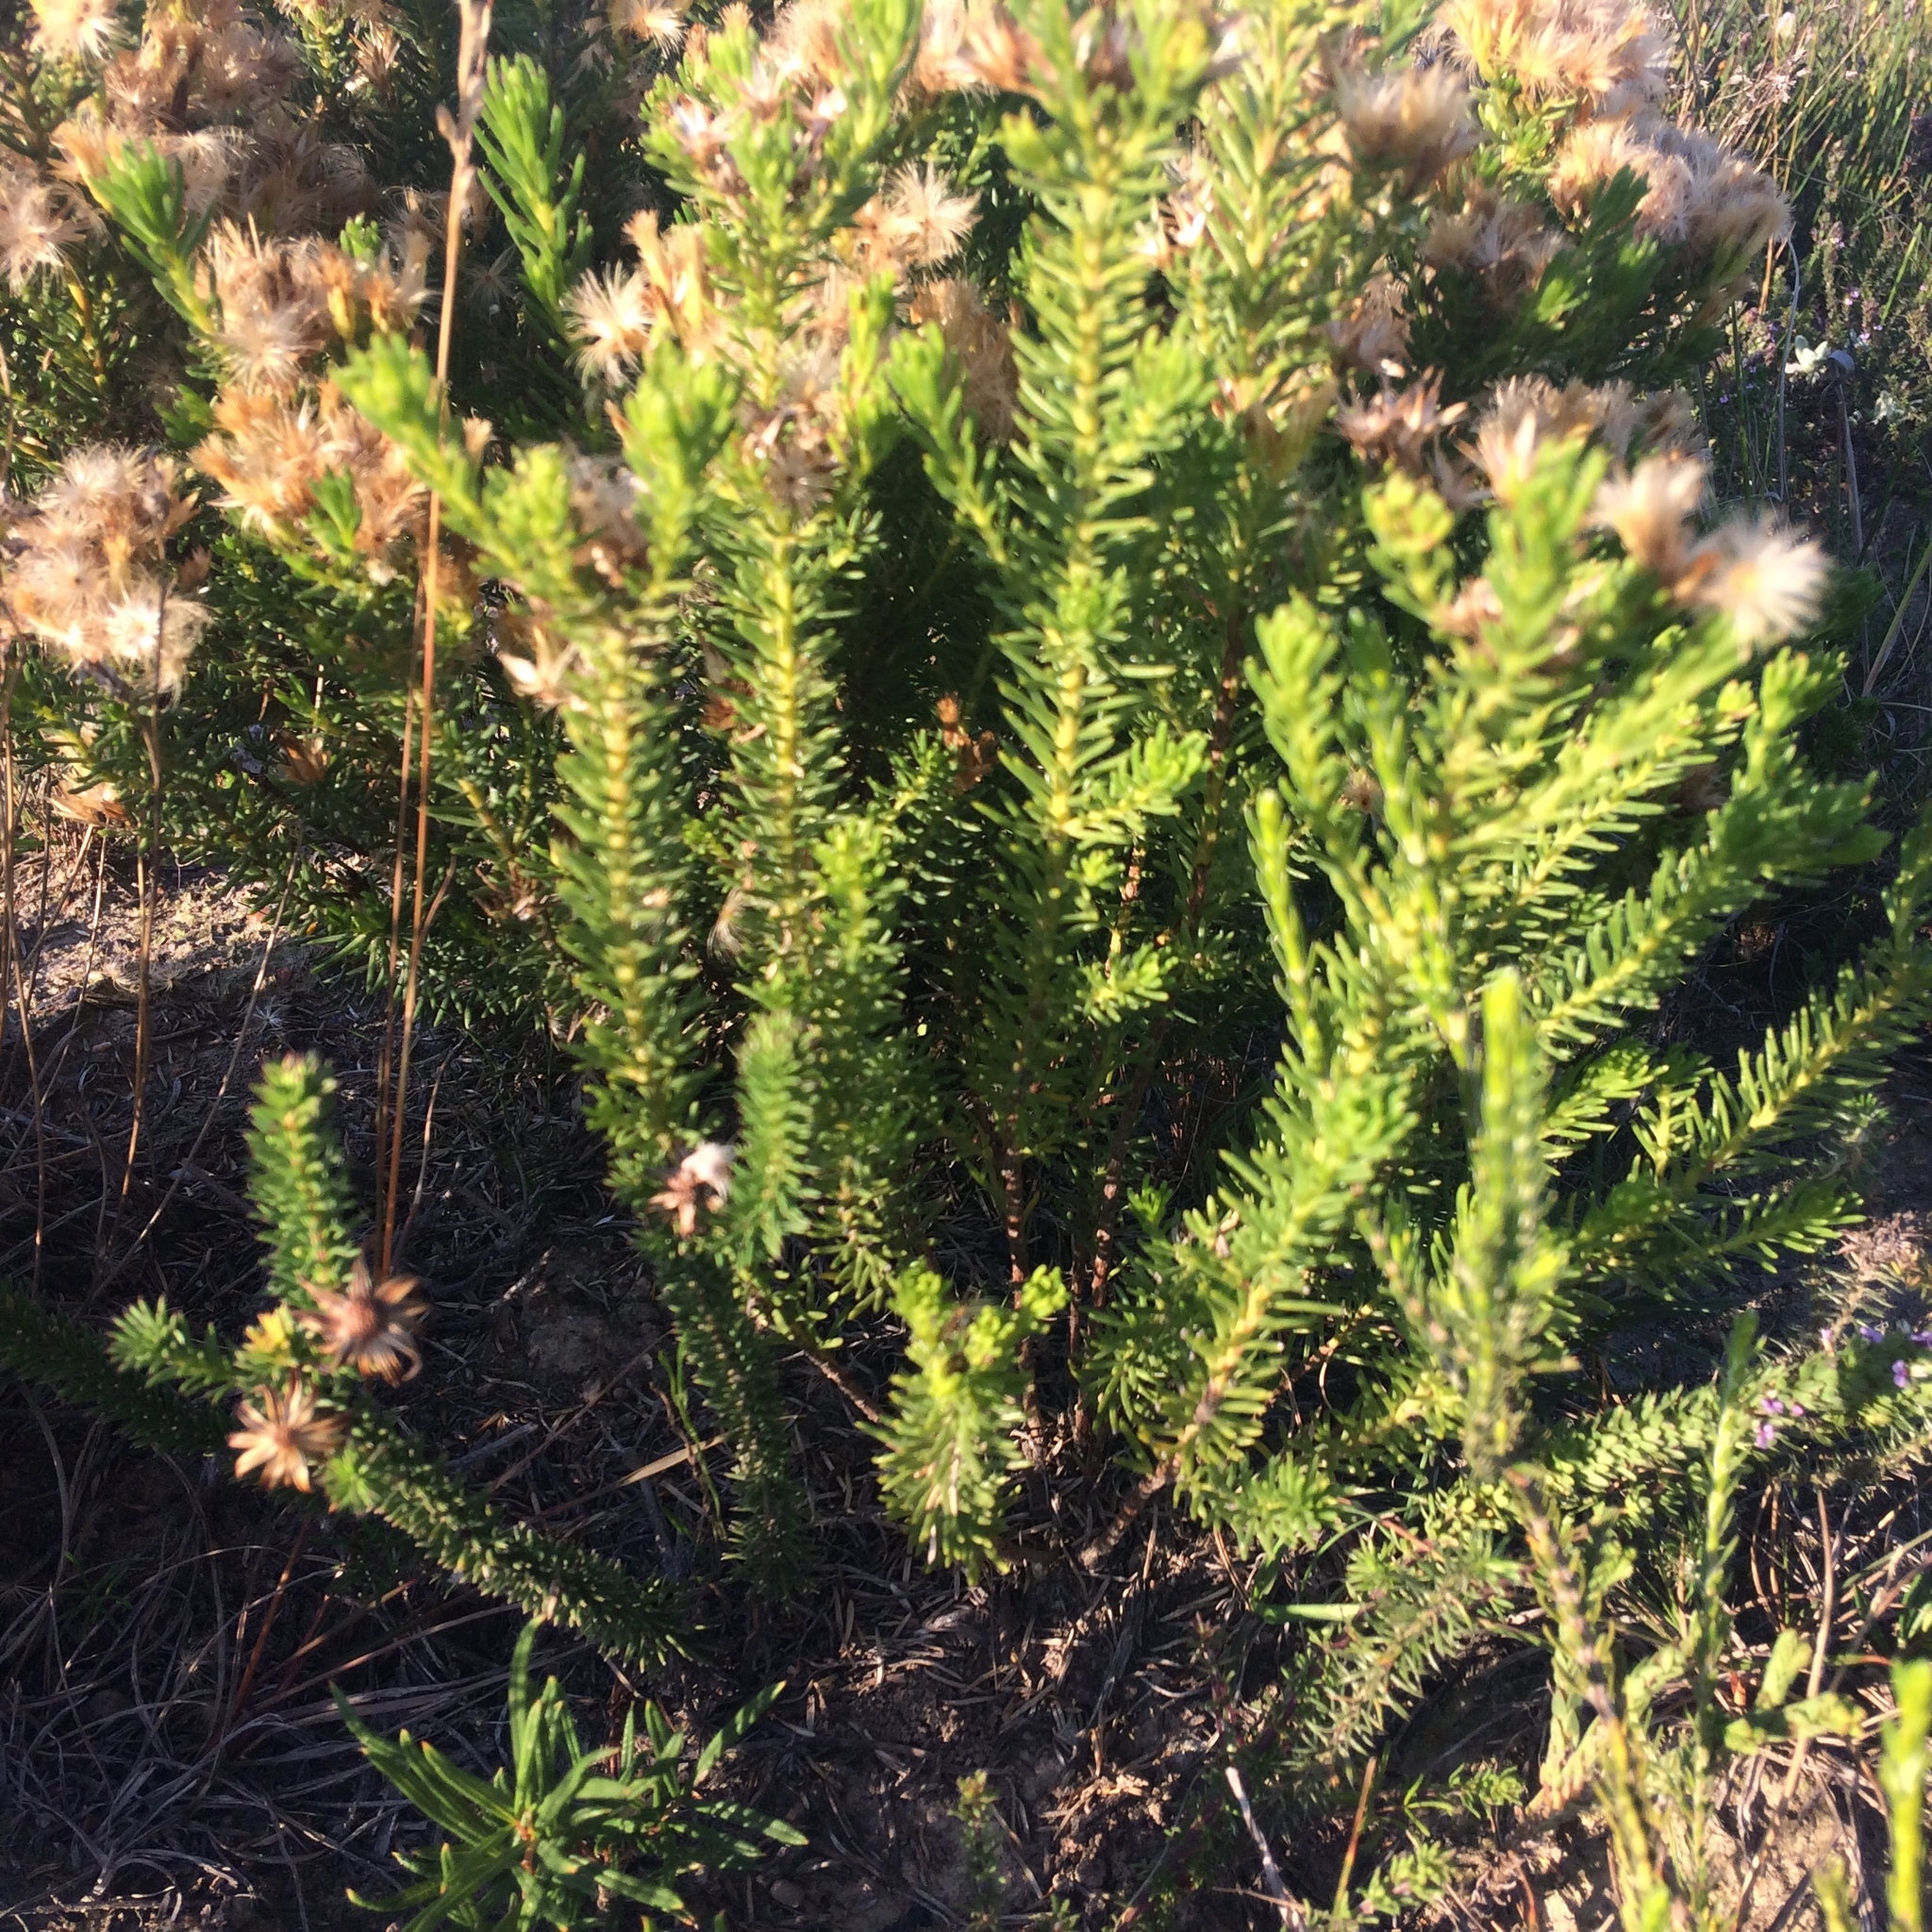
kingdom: Plantae
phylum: Tracheophyta
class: Magnoliopsida
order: Asterales
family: Asteraceae
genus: Pteronia
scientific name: Pteronia teretifolia
